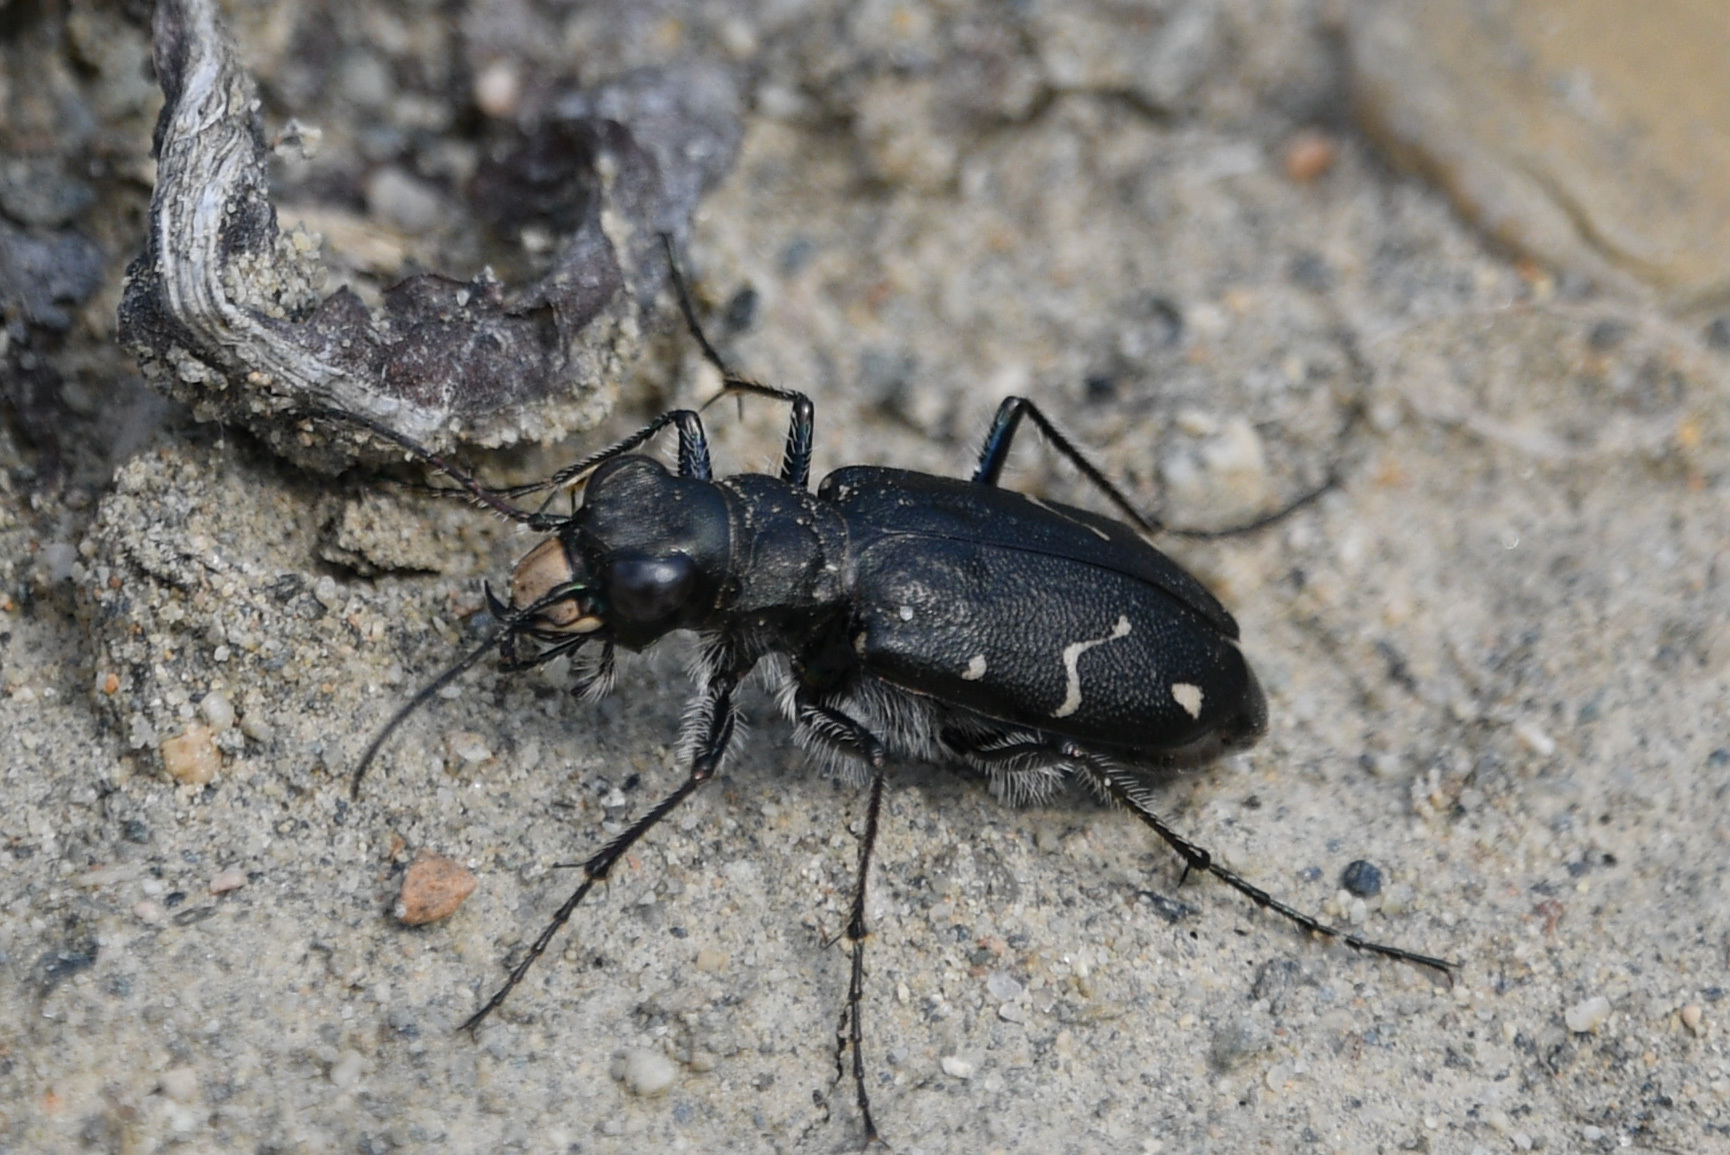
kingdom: Animalia
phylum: Arthropoda
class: Insecta
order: Coleoptera
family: Carabidae
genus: Cicindela
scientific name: Cicindela longilabris
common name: Boreal long-lipped tiger beetle
